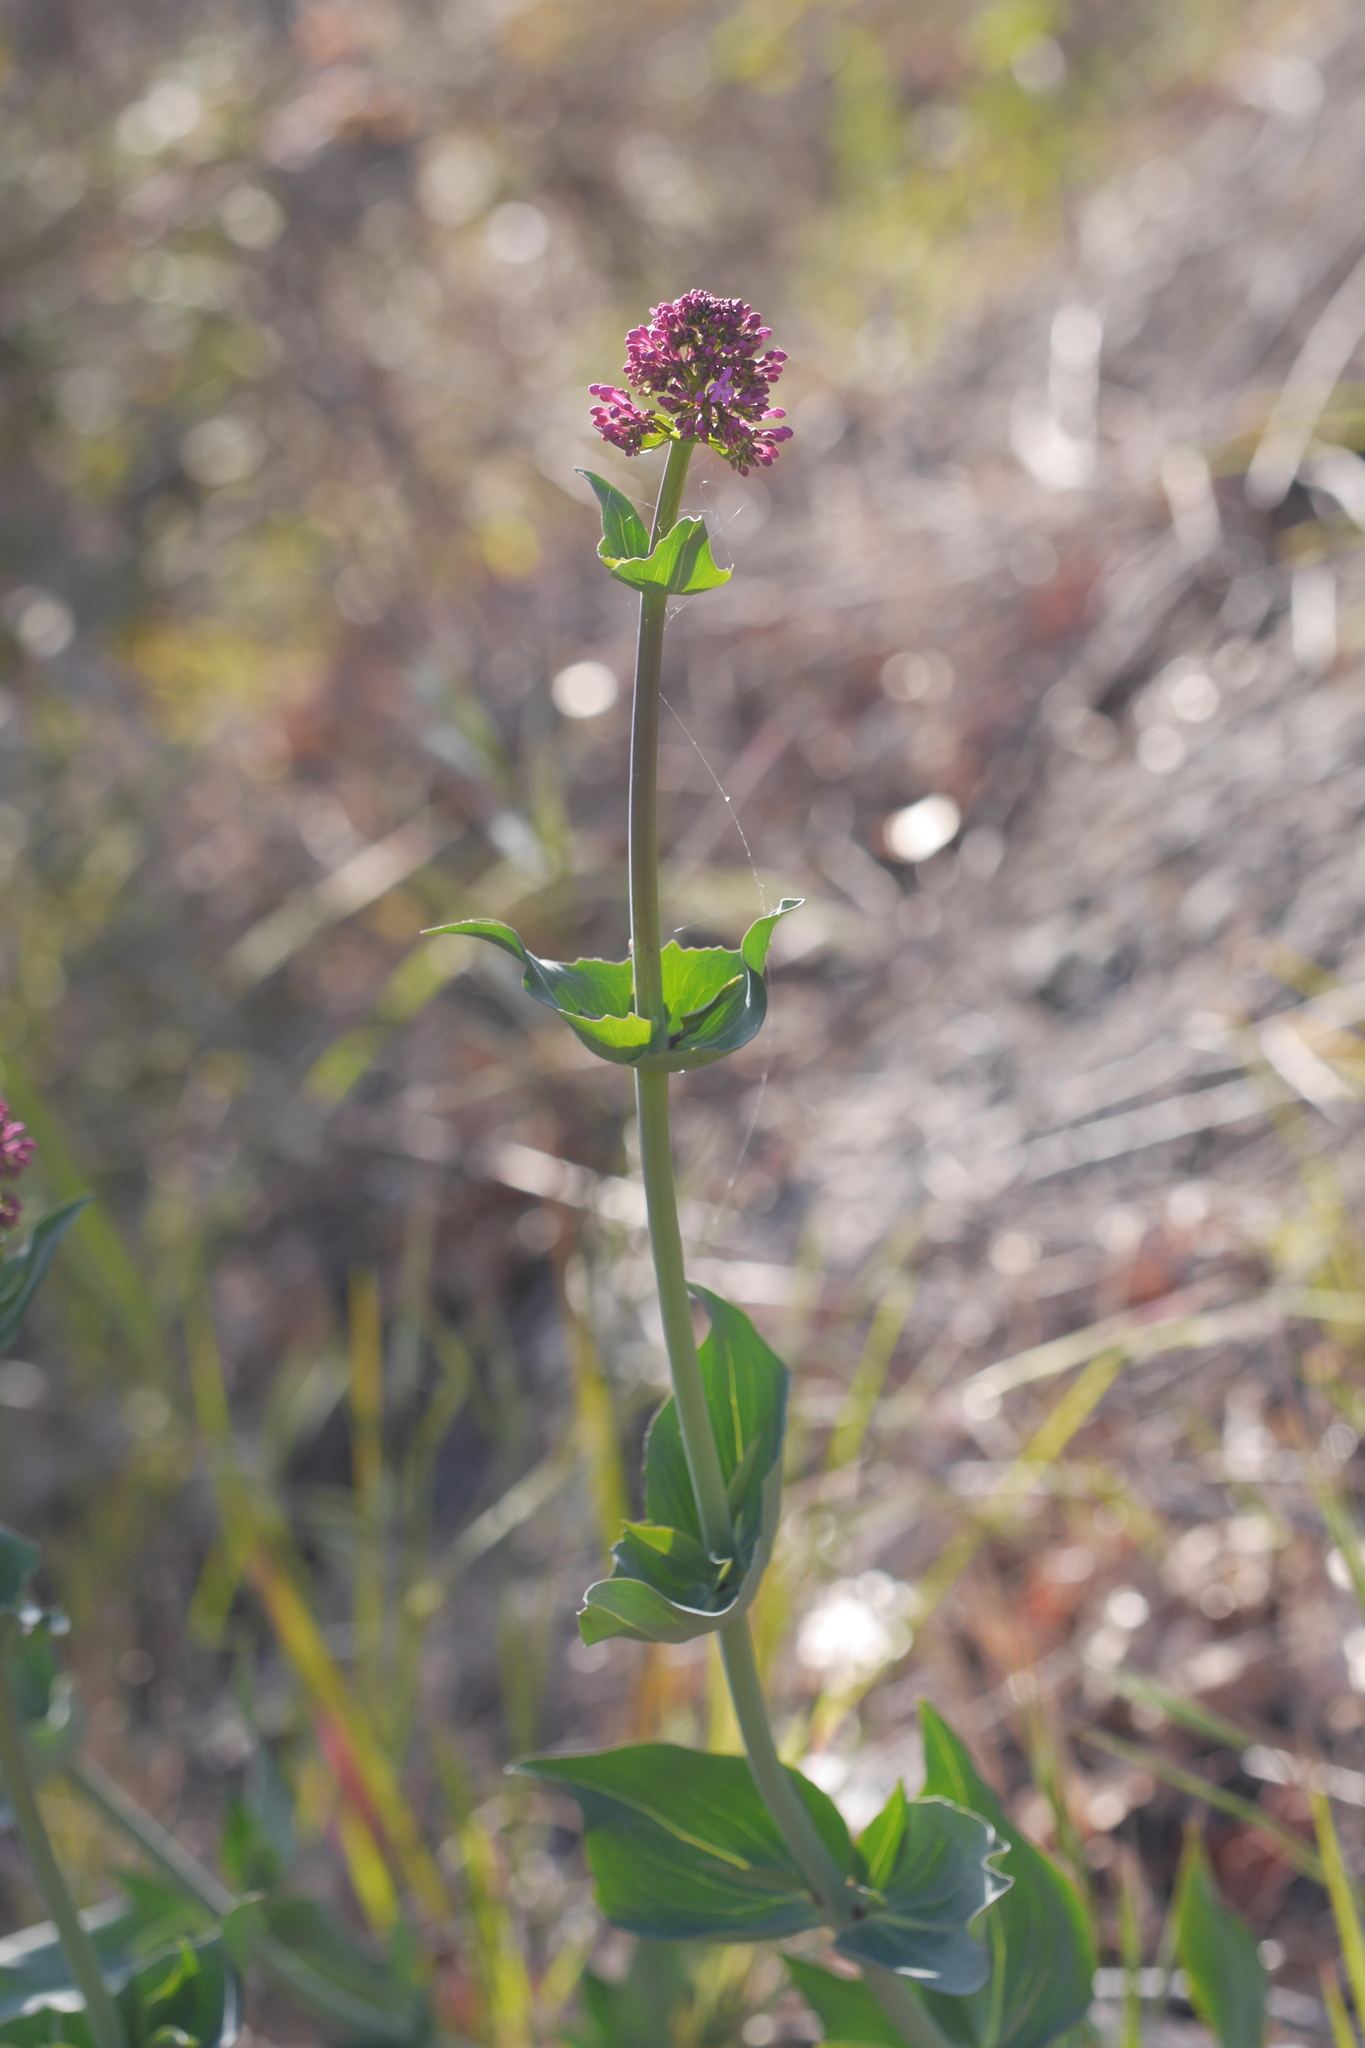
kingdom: Plantae
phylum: Tracheophyta
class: Magnoliopsida
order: Dipsacales
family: Caprifoliaceae
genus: Centranthus
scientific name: Centranthus ruber
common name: Red valerian
